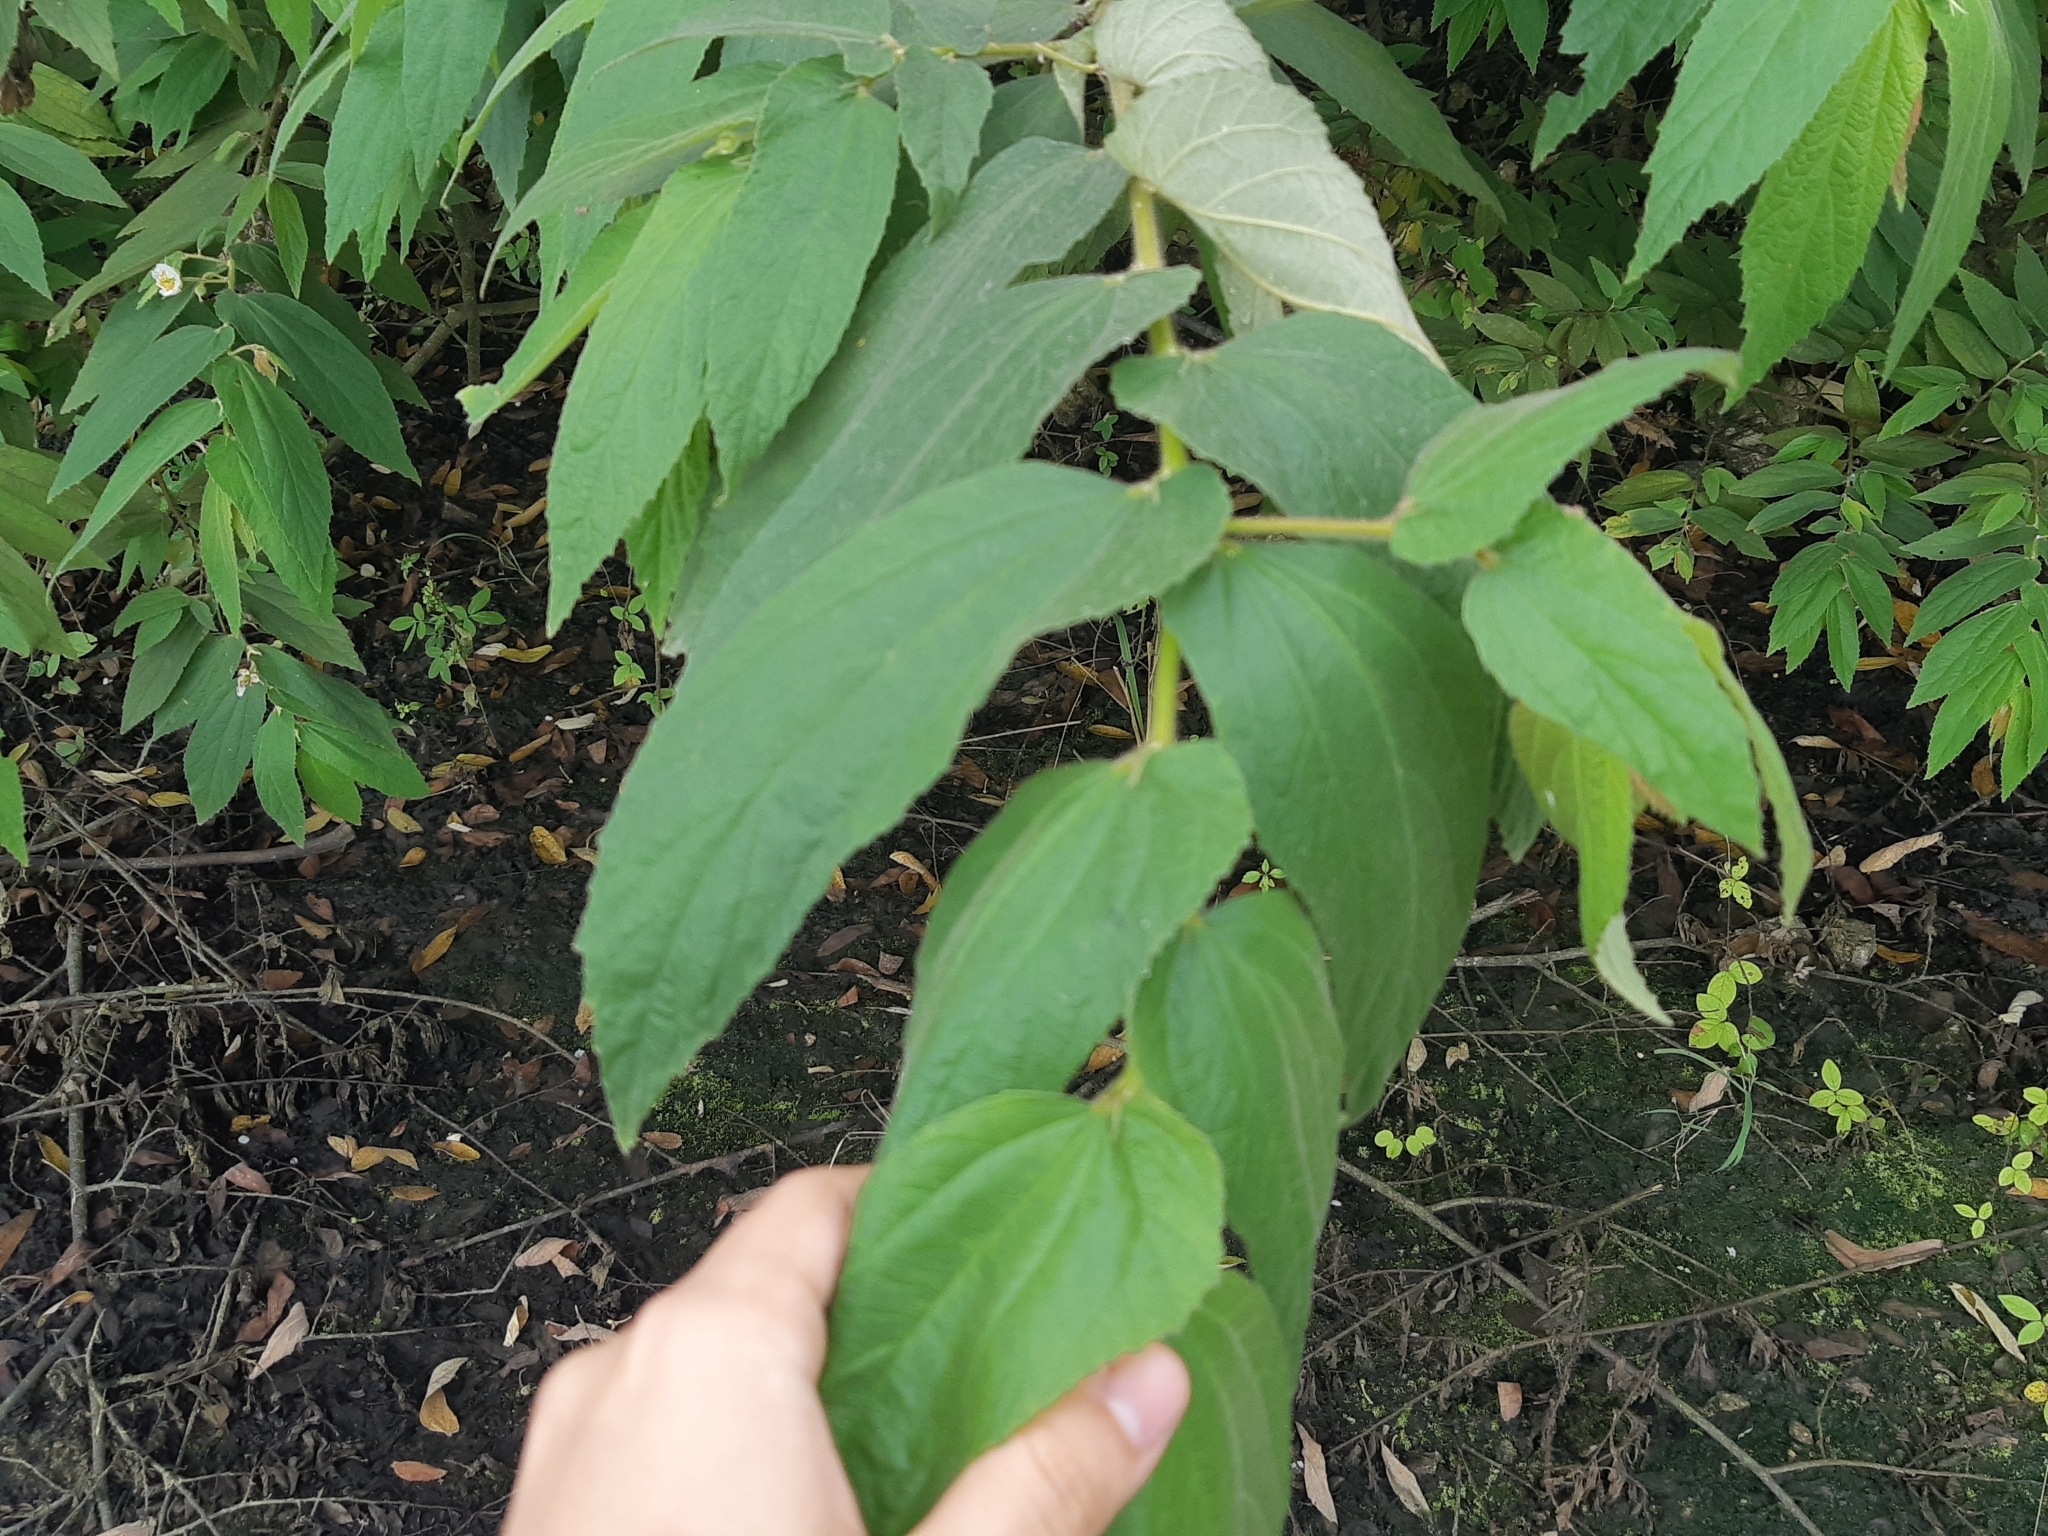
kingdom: Plantae
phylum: Tracheophyta
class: Magnoliopsida
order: Malvales
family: Muntingiaceae
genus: Muntingia
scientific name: Muntingia calabura
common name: Strawberrytree
